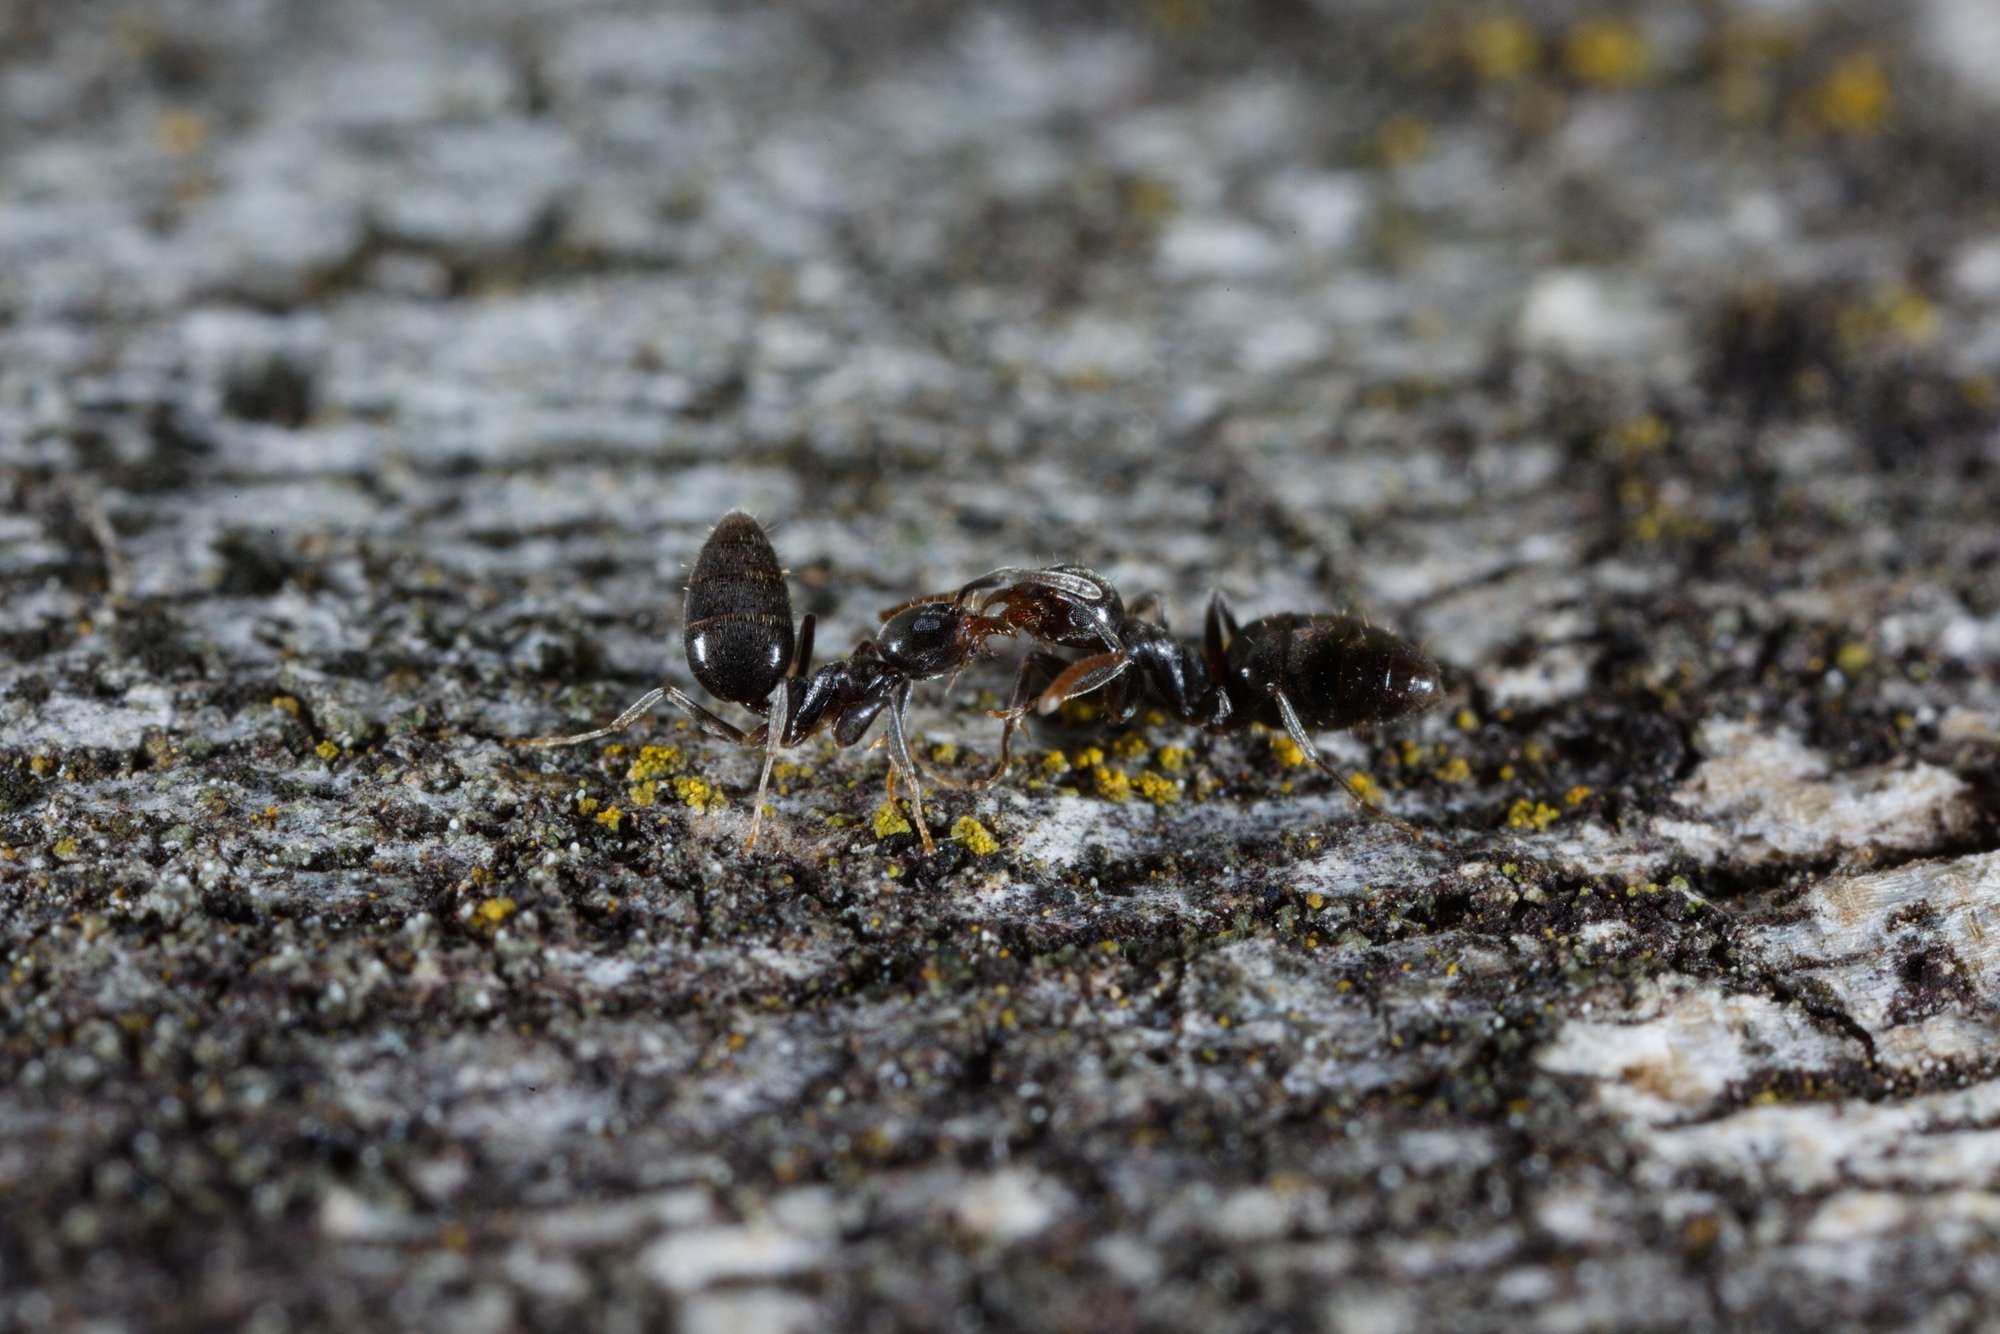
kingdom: Animalia
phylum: Arthropoda
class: Insecta
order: Hymenoptera
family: Formicidae
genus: Technomyrmex
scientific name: Technomyrmex jocosus
